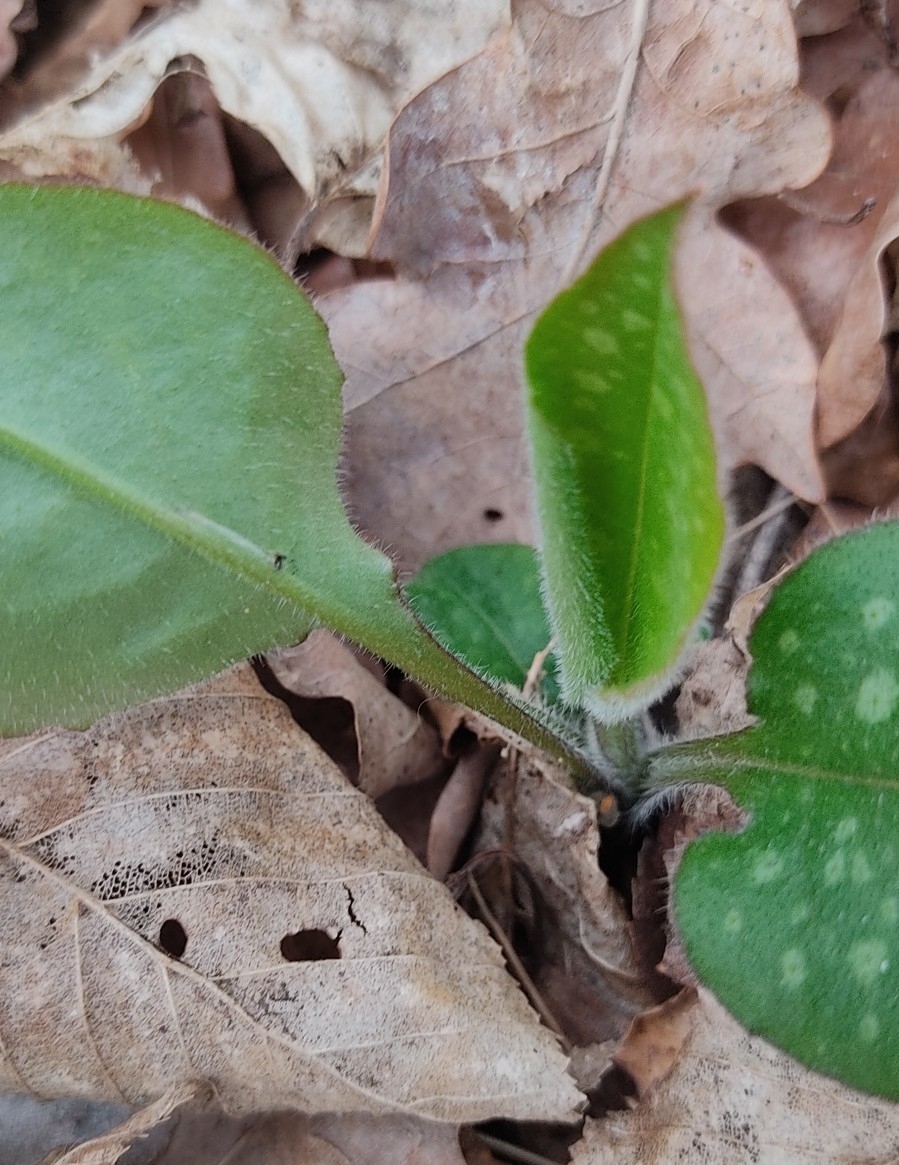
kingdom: Plantae
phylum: Tracheophyta
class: Magnoliopsida
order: Boraginales
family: Boraginaceae
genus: Pulmonaria
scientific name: Pulmonaria officinalis
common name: Lungwort
